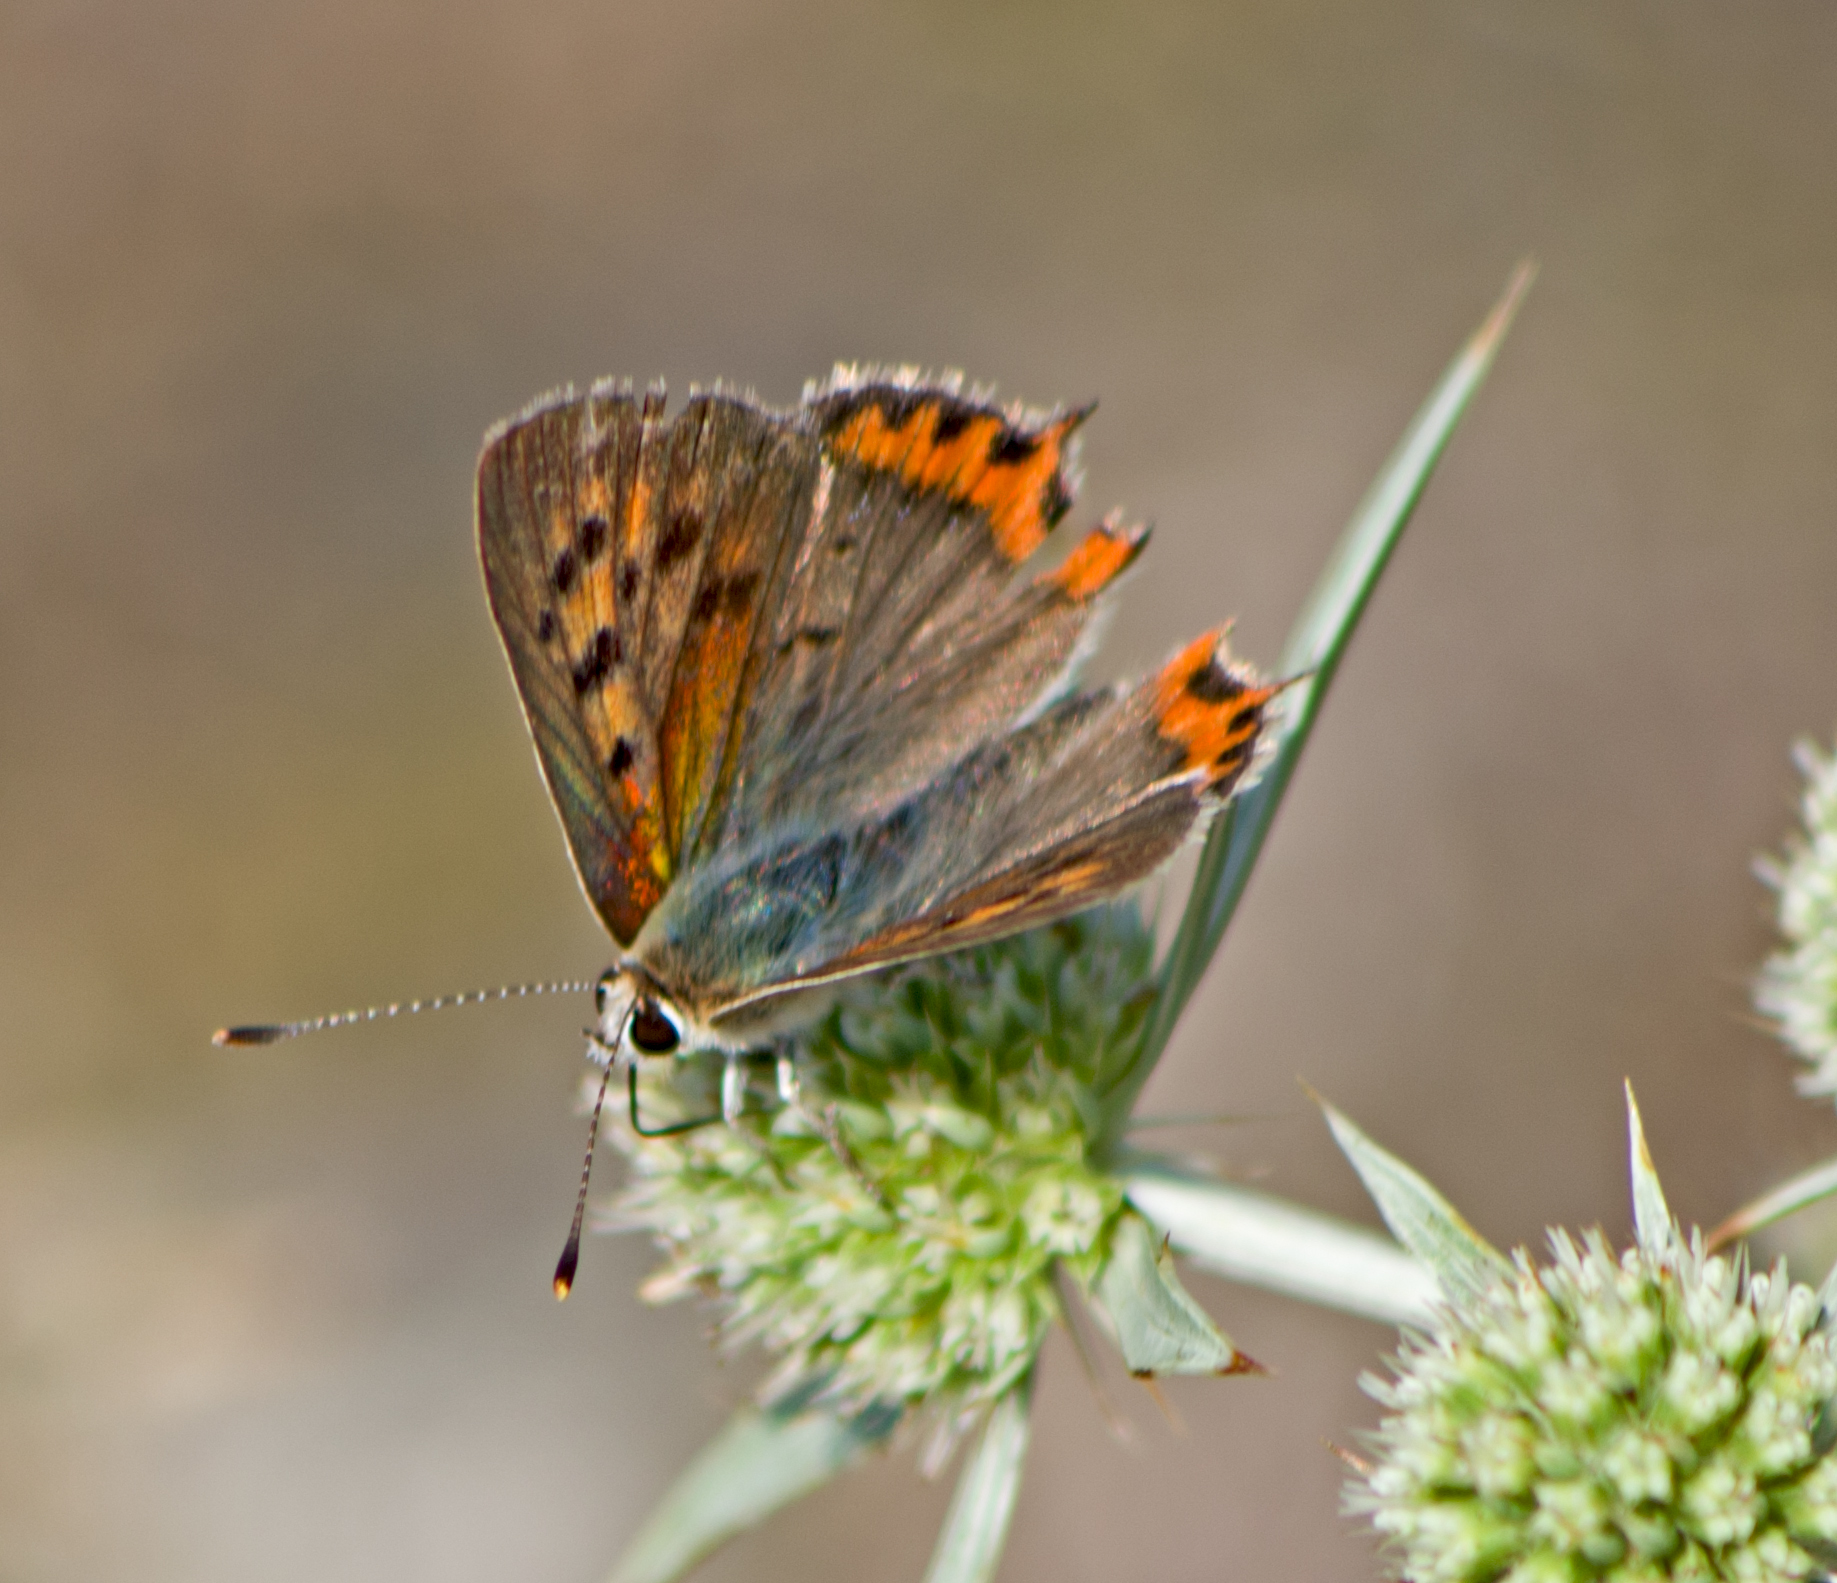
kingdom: Animalia
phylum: Arthropoda
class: Insecta
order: Lepidoptera
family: Lycaenidae
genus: Lycaena
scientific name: Lycaena phlaeas
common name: Small copper
